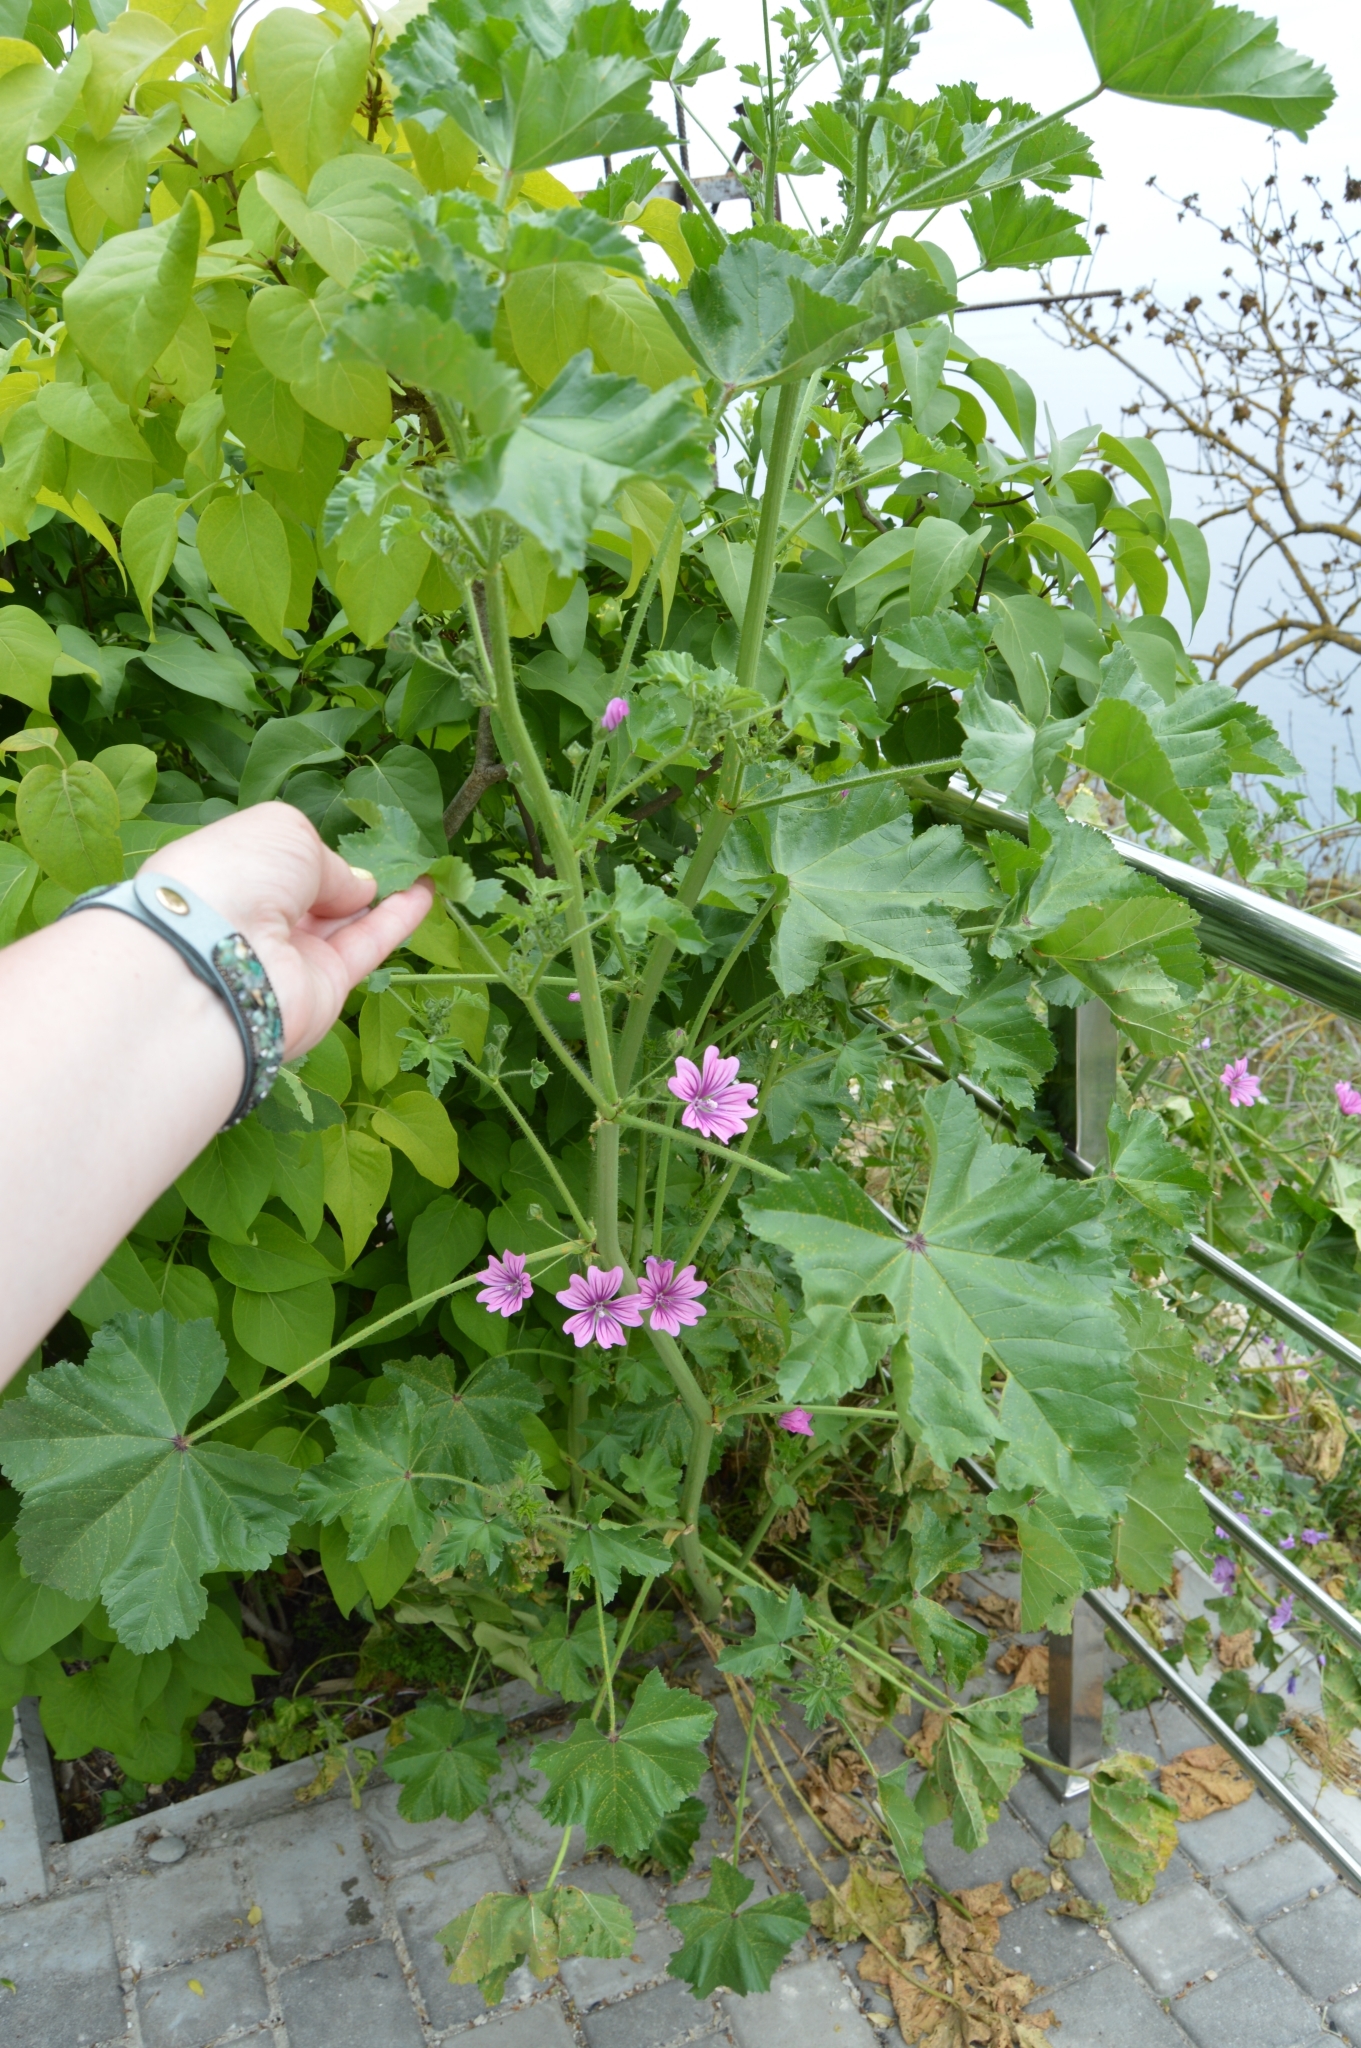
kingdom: Plantae
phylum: Tracheophyta
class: Magnoliopsida
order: Malvales
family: Malvaceae
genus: Malva
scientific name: Malva sylvestris
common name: Common mallow
